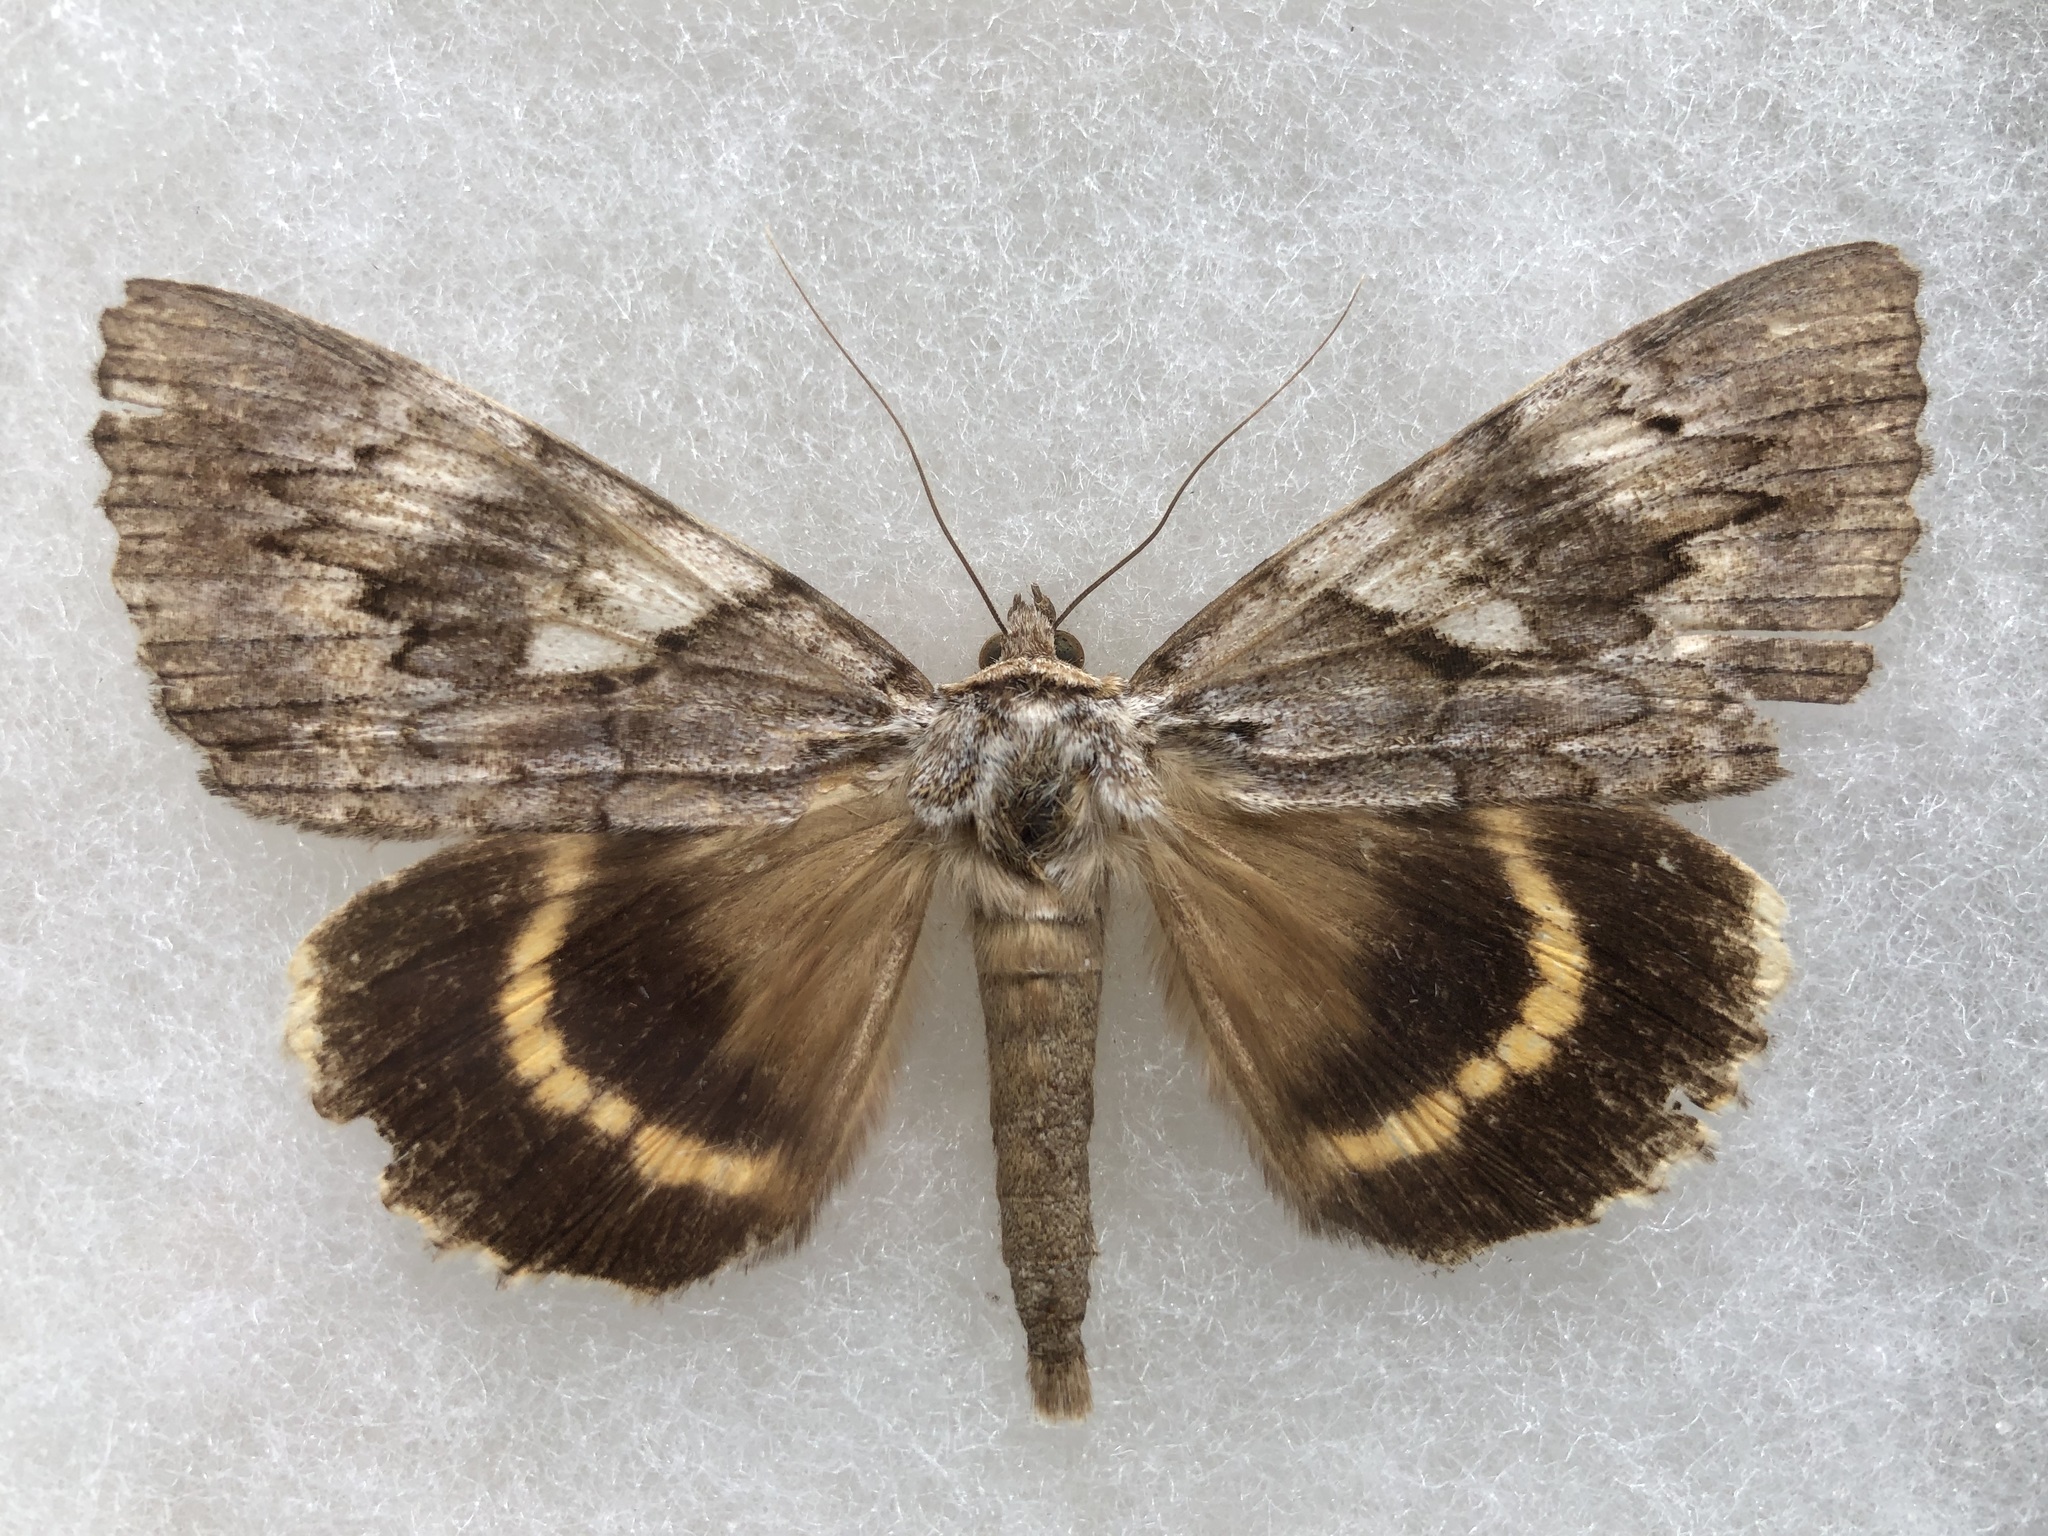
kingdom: Animalia
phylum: Arthropoda
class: Insecta
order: Lepidoptera
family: Erebidae
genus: Catocala
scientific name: Catocala cerogama
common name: Yellow banded underwing
